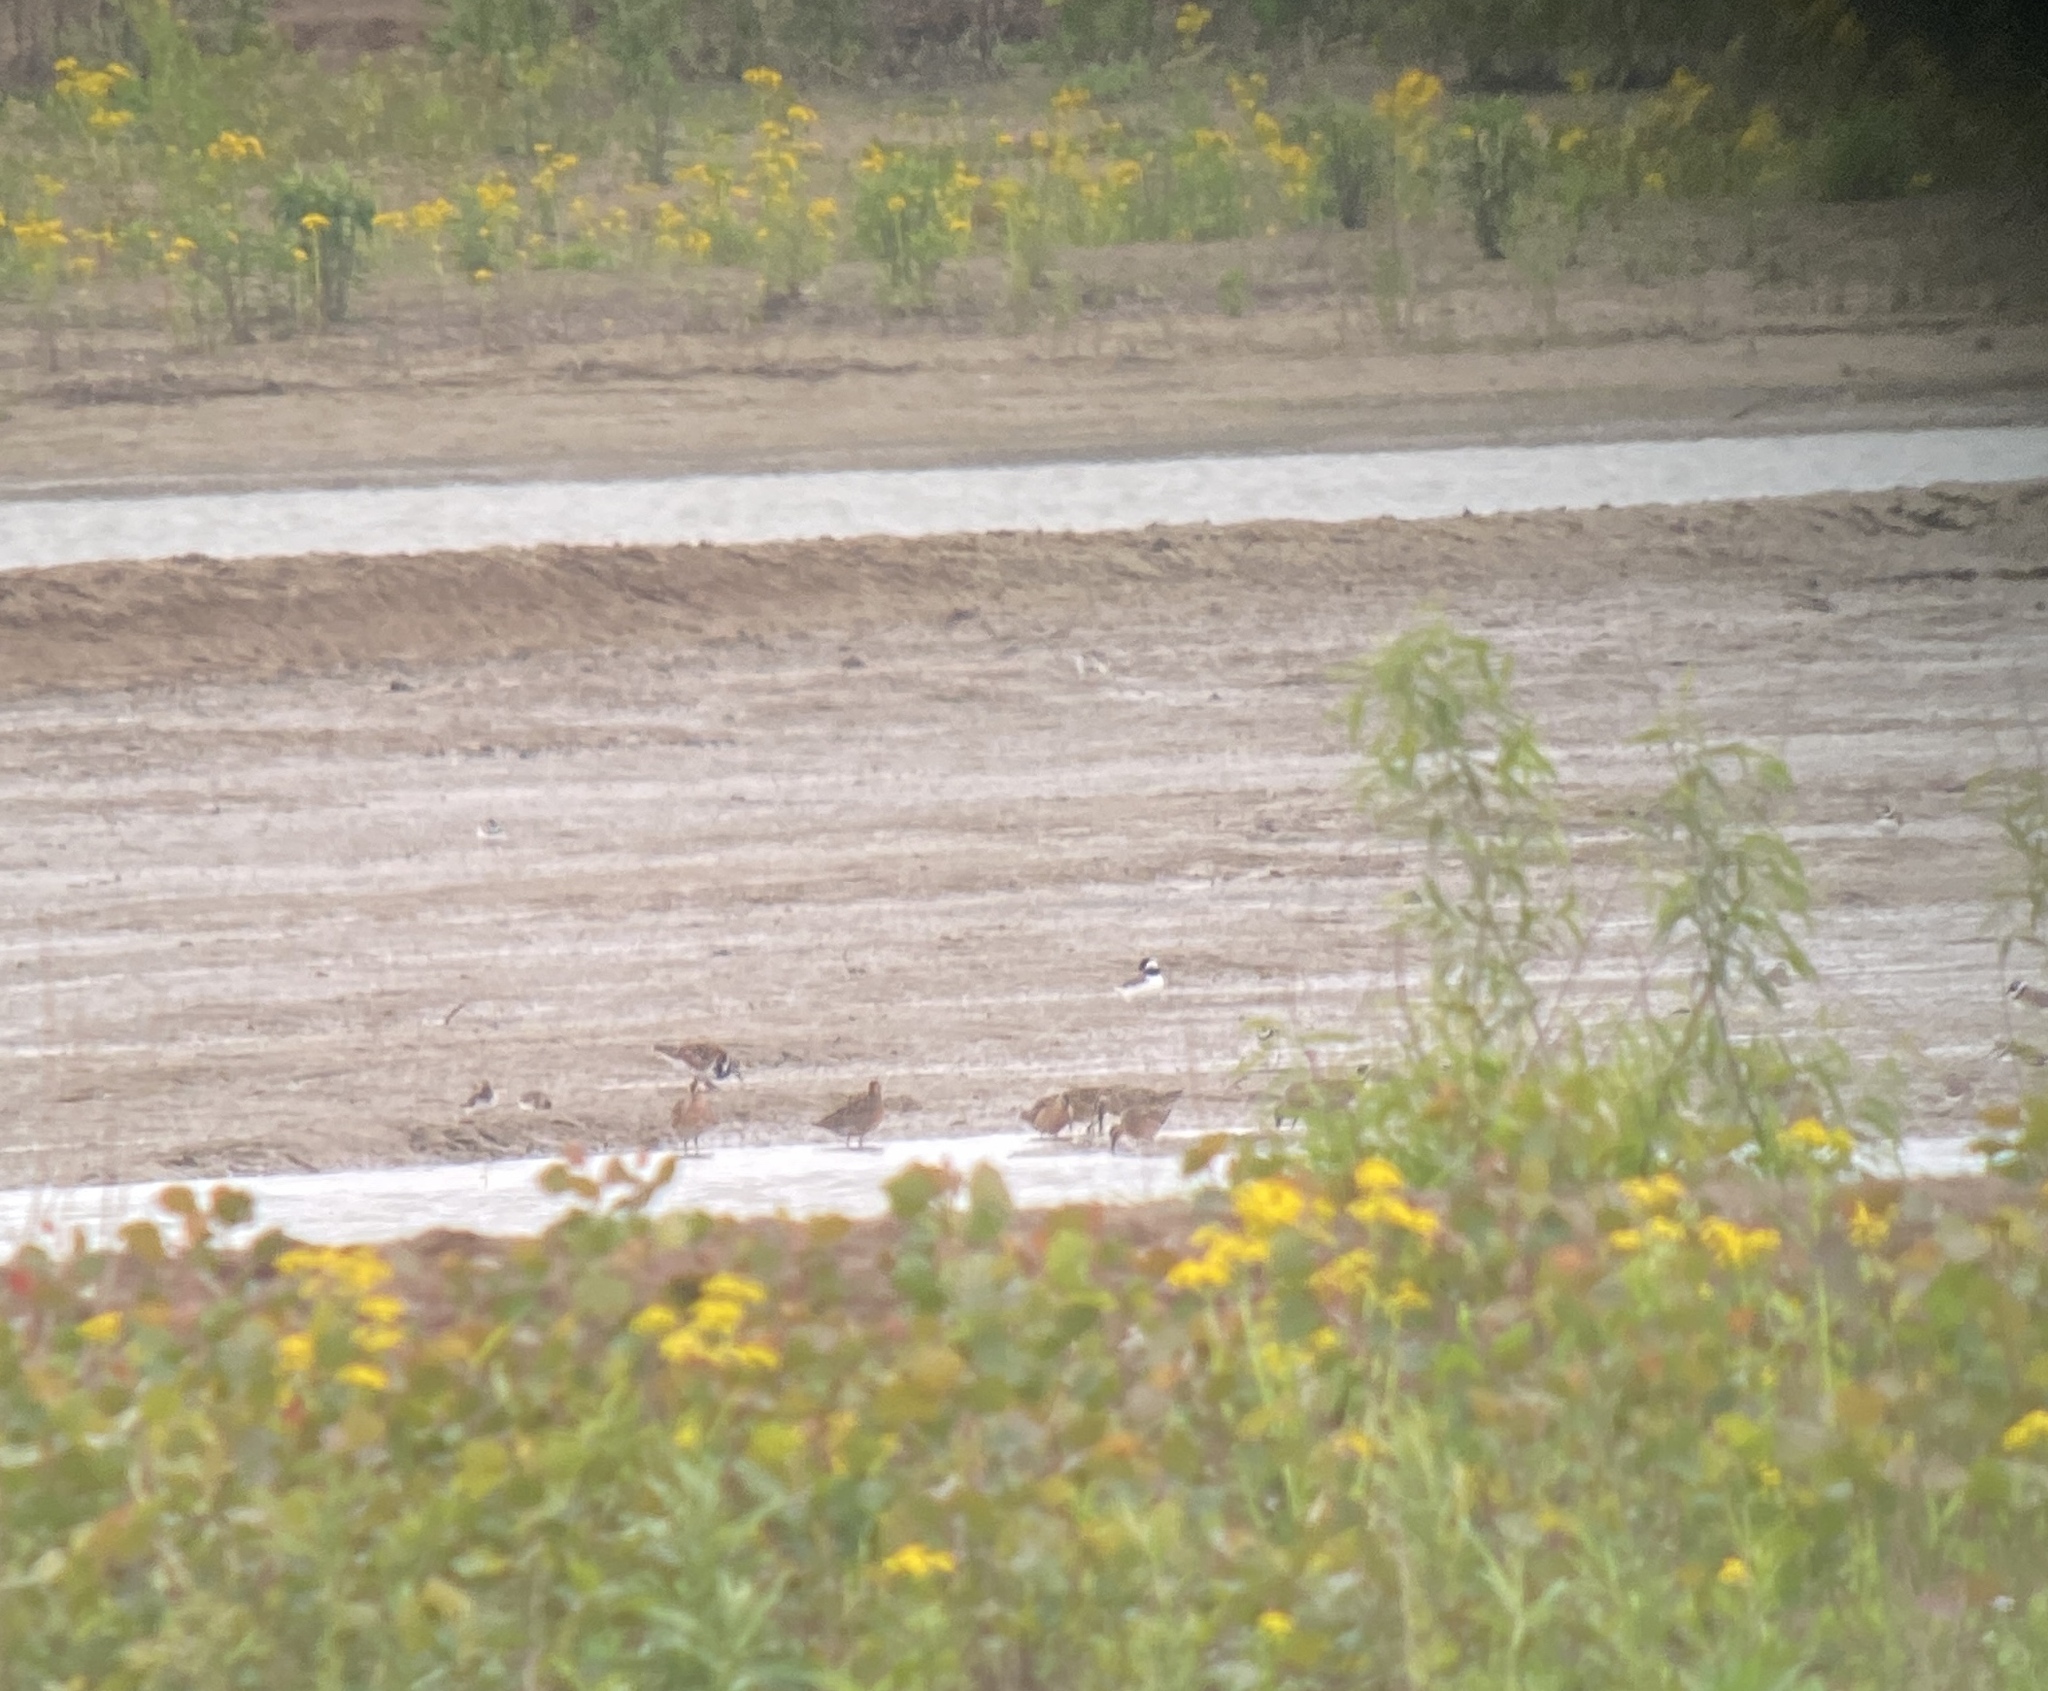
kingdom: Animalia
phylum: Chordata
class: Aves
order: Charadriiformes
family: Scolopacidae
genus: Arenaria
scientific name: Arenaria interpres
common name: Ruddy turnstone
